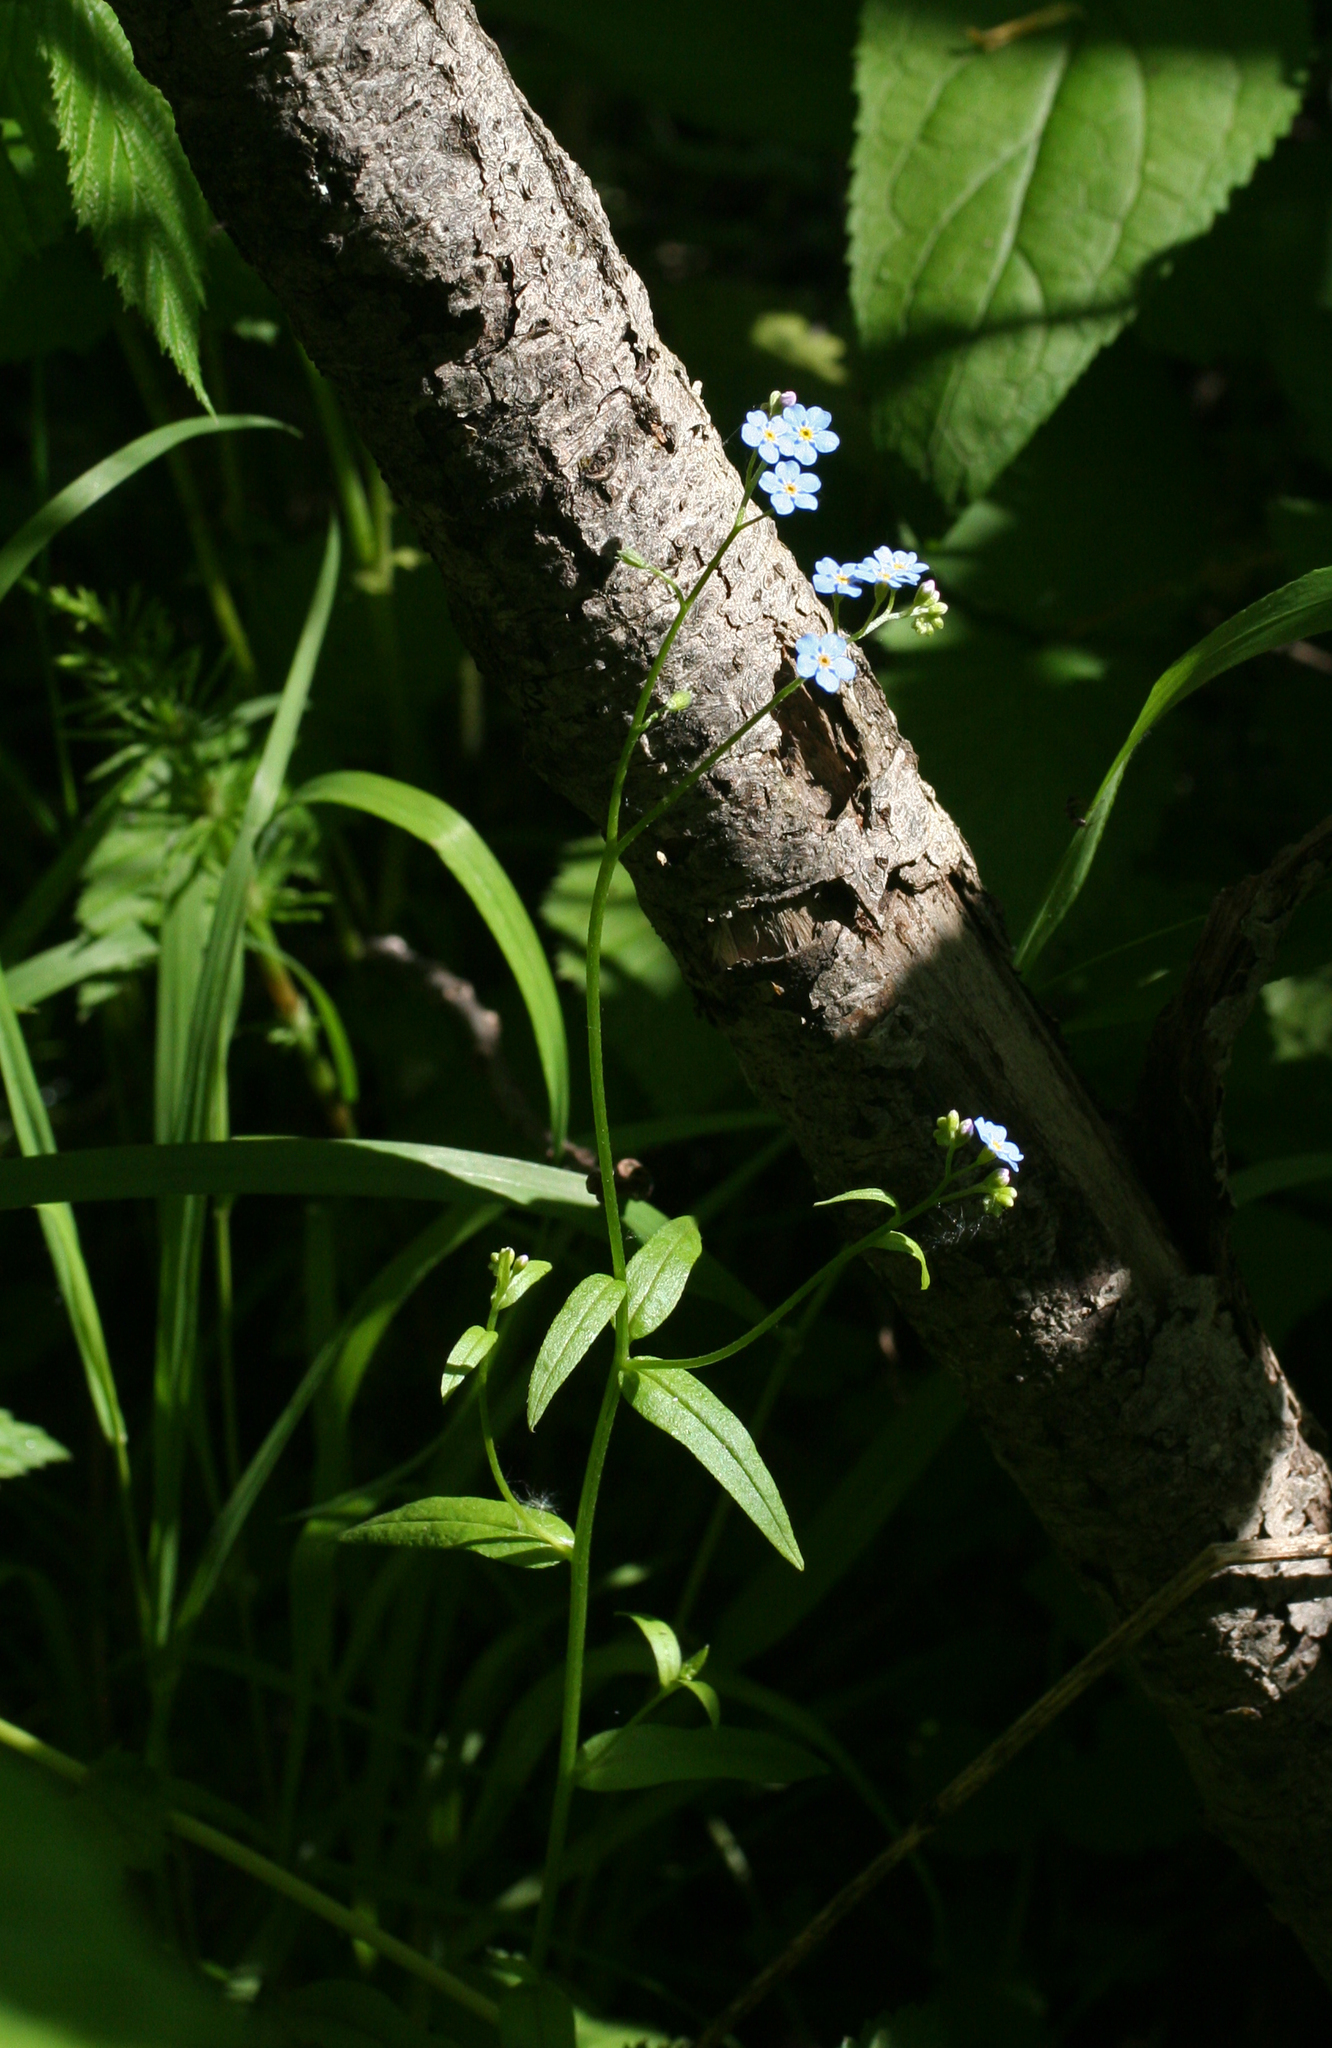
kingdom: Plantae
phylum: Tracheophyta
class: Magnoliopsida
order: Boraginales
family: Boraginaceae
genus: Myosotis
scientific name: Myosotis scorpioides
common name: Water forget-me-not
